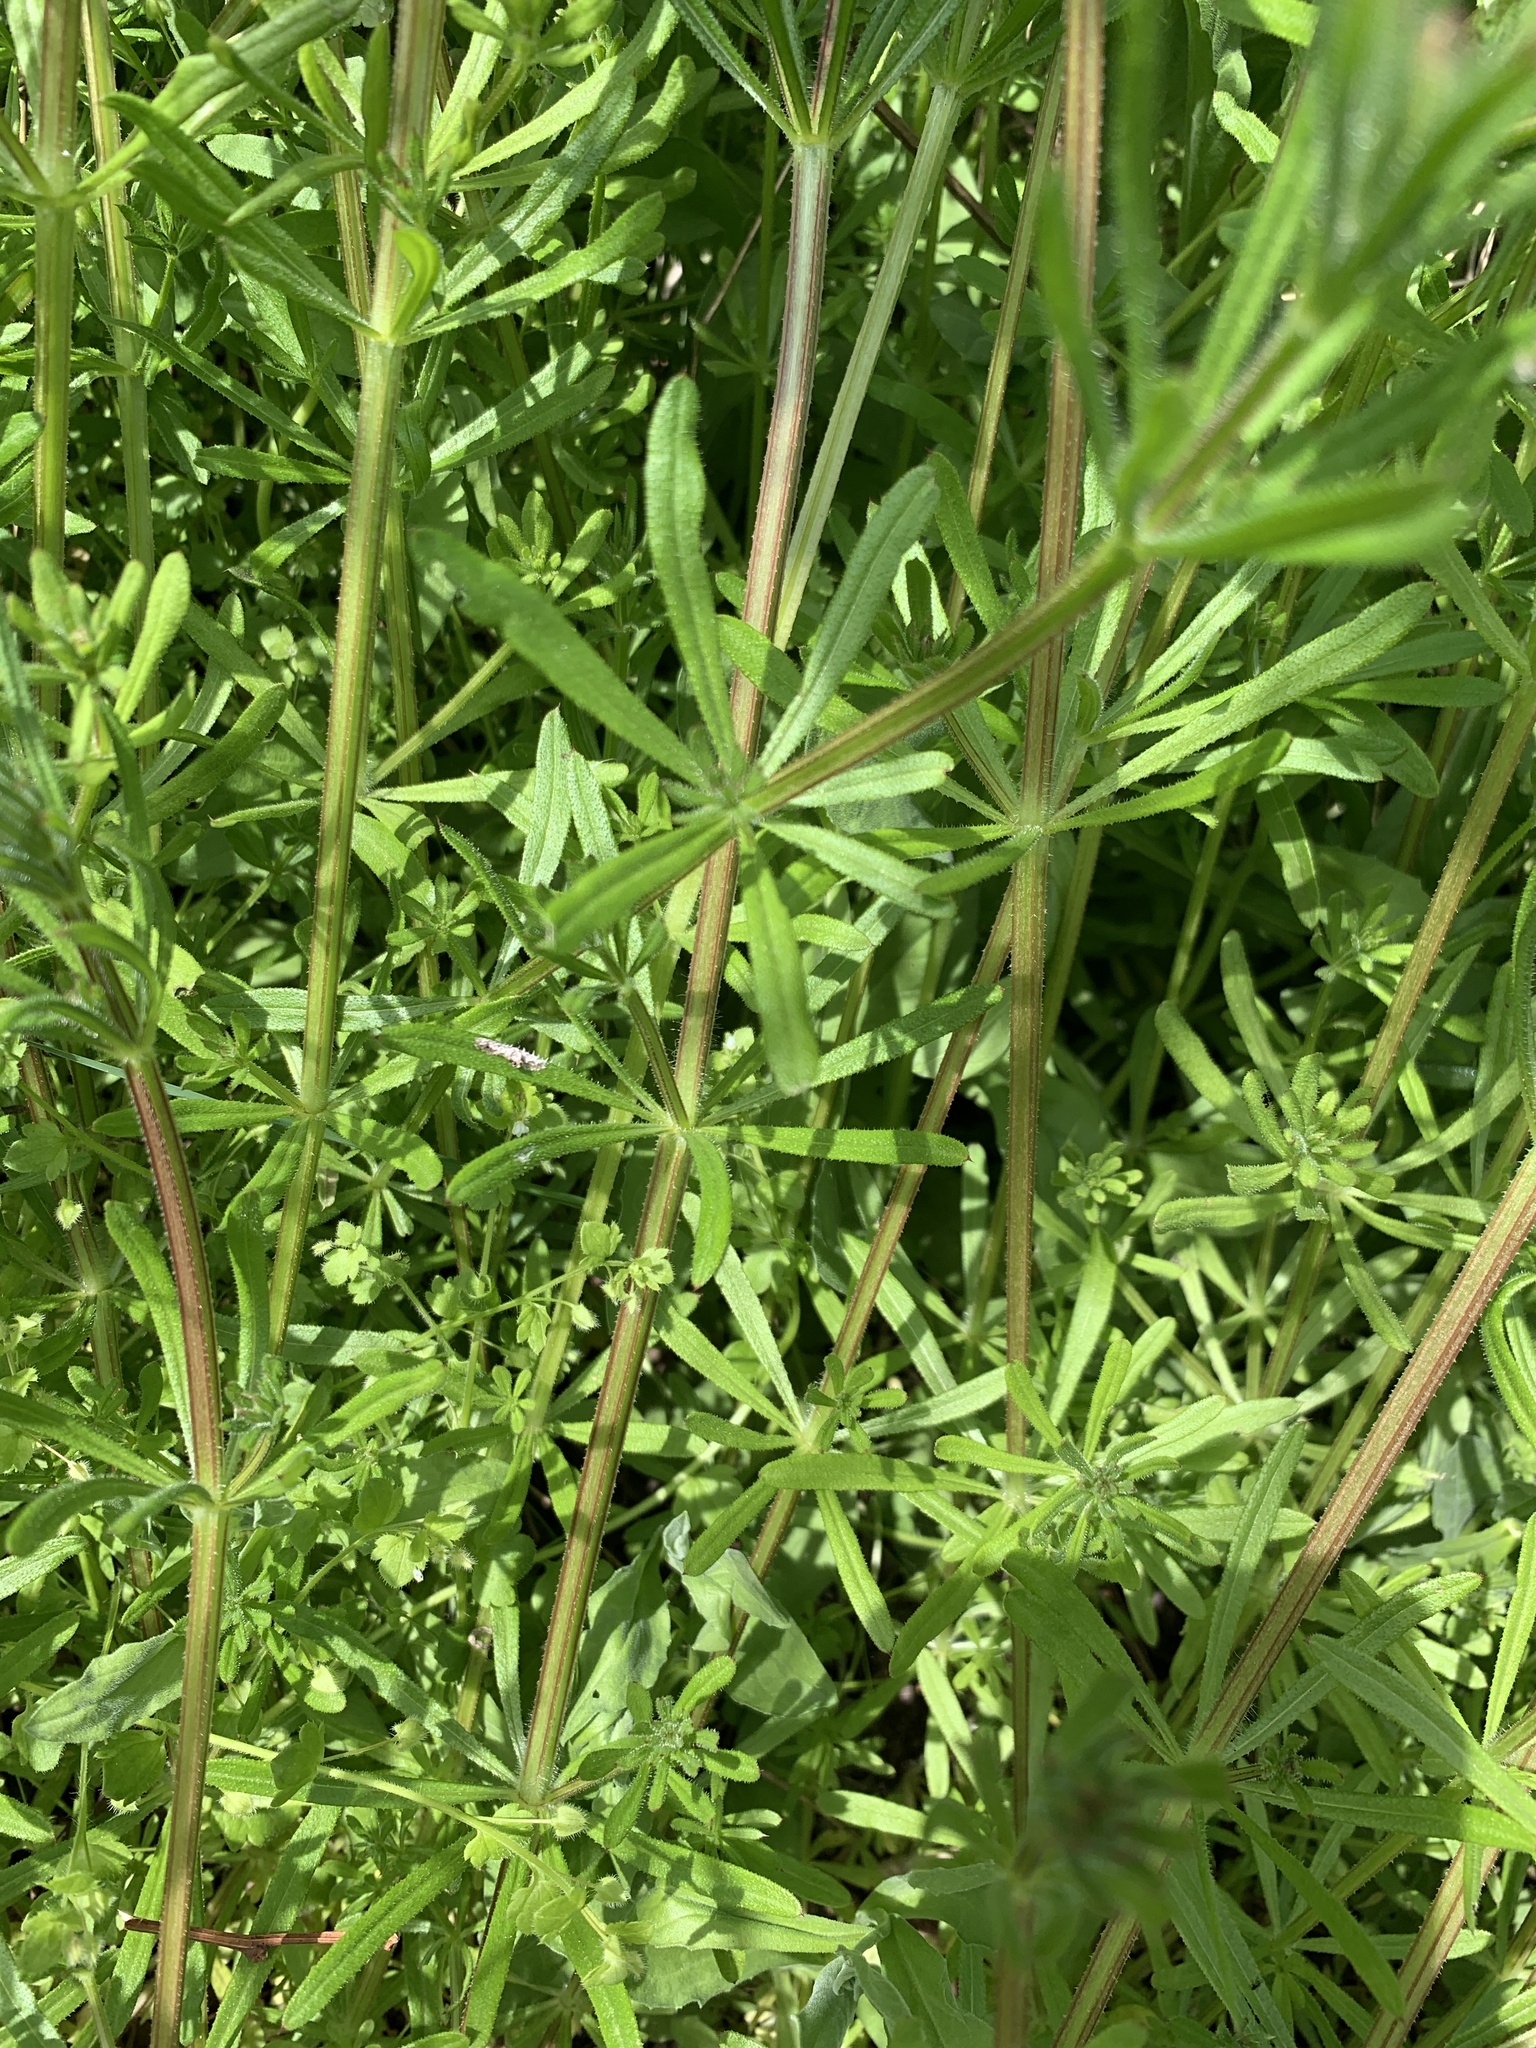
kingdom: Plantae
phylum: Tracheophyta
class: Magnoliopsida
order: Gentianales
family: Rubiaceae
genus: Galium
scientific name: Galium aparine
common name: Cleavers
